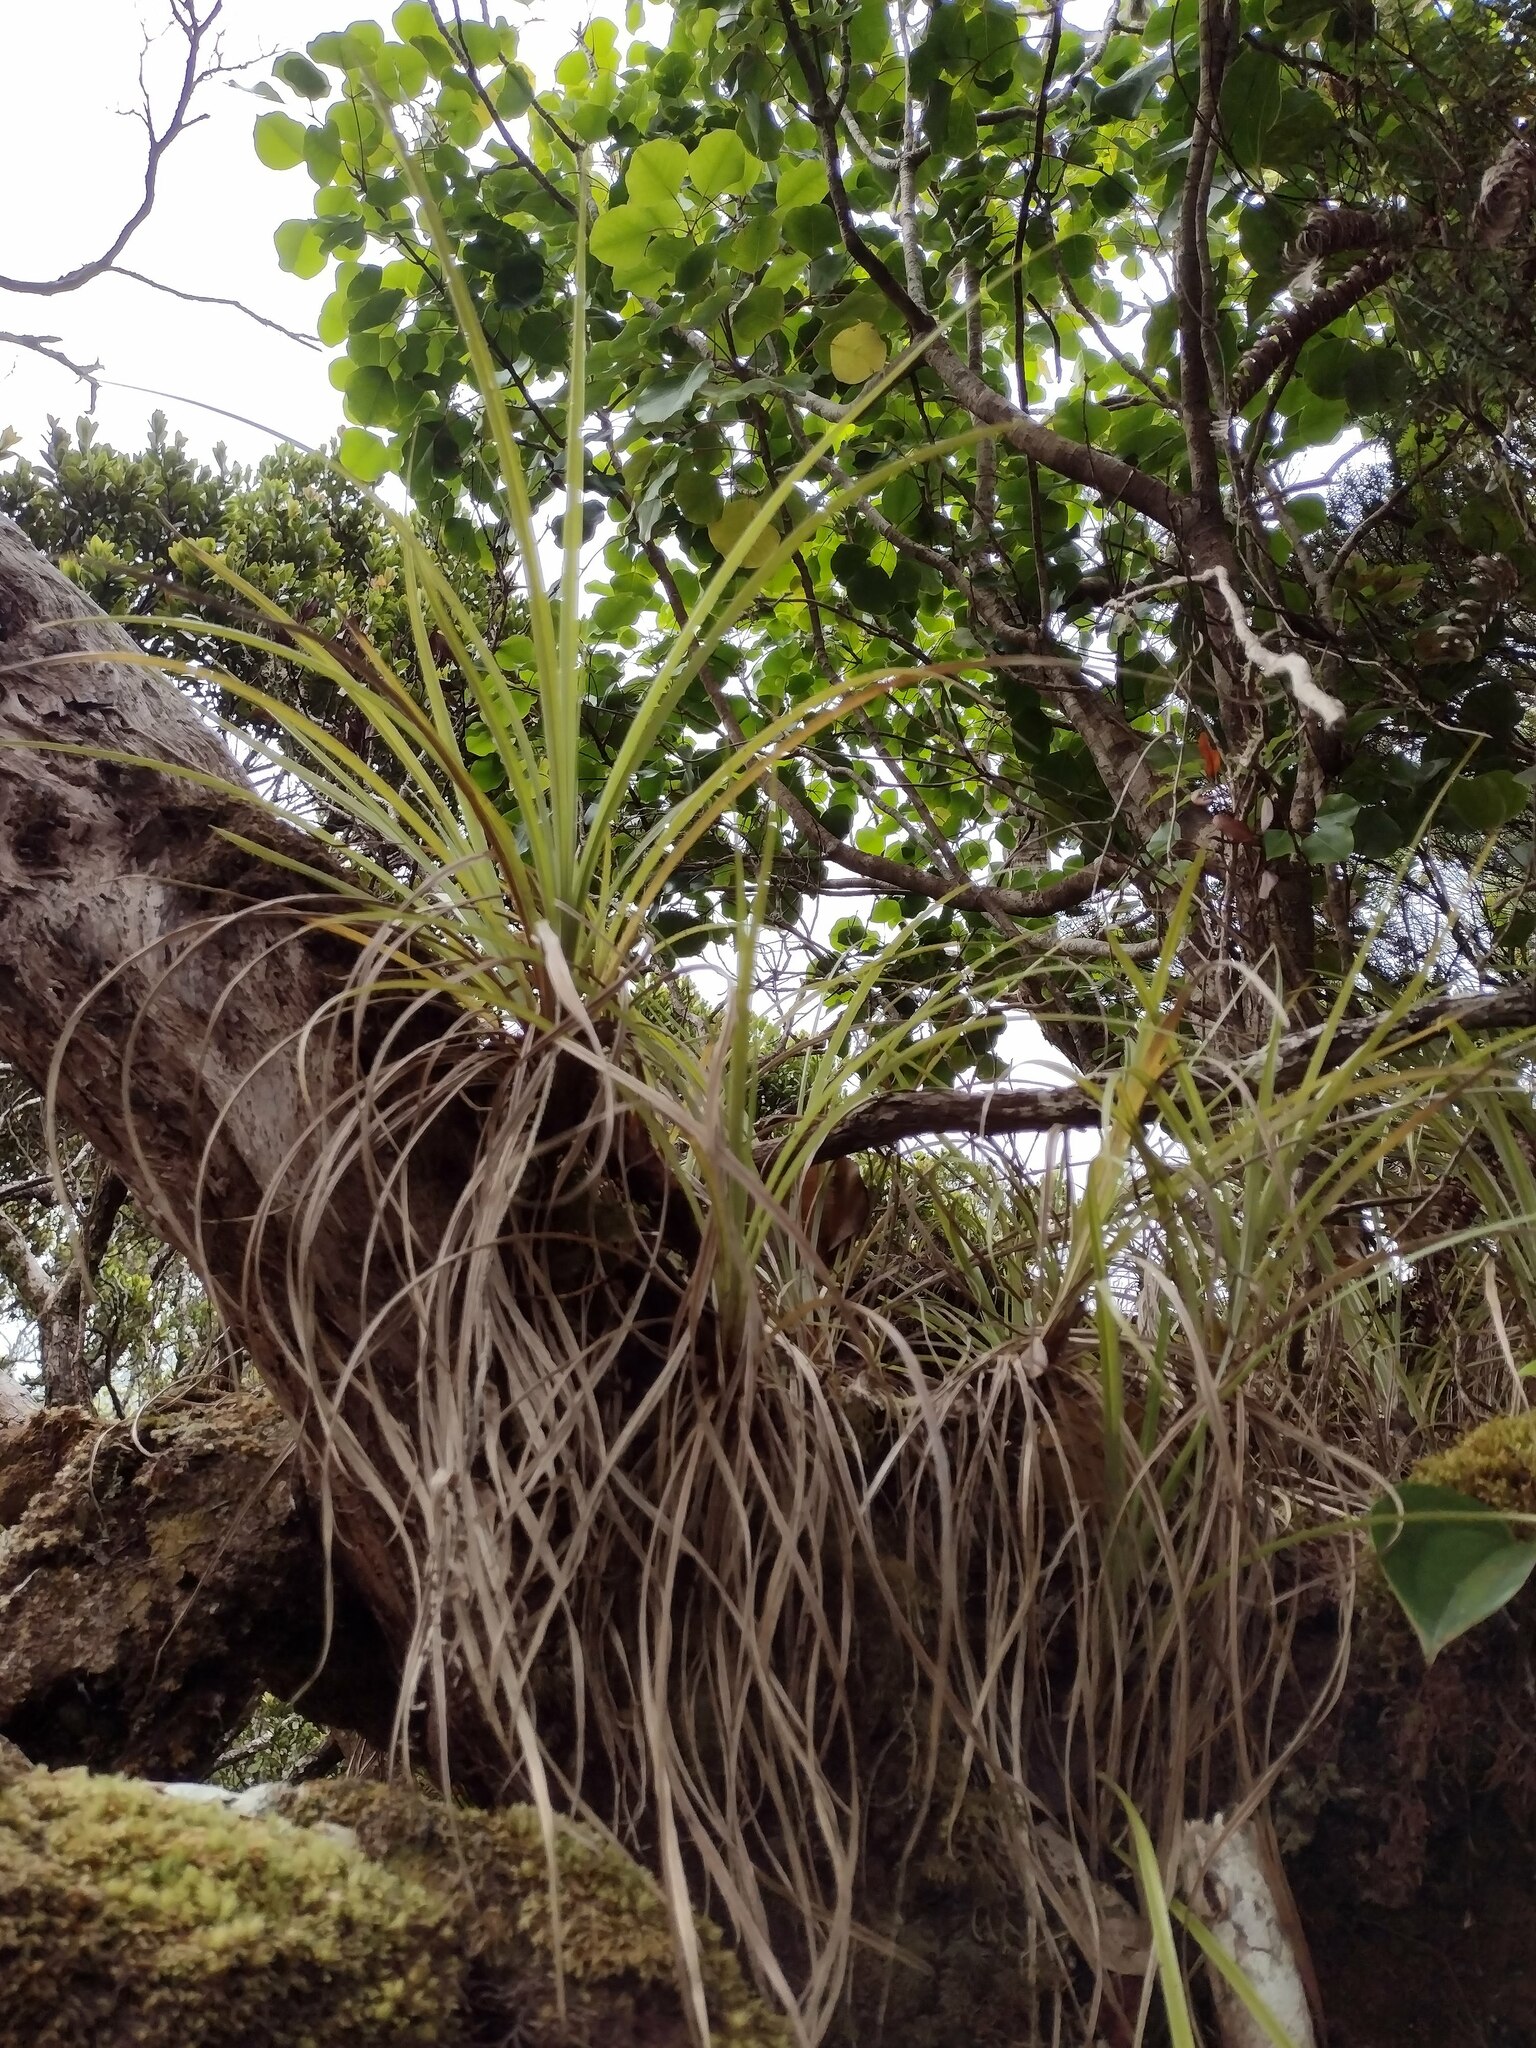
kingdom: Plantae
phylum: Tracheophyta
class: Liliopsida
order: Asparagales
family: Asteliaceae
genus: Astelia
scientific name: Astelia argyrocoma
